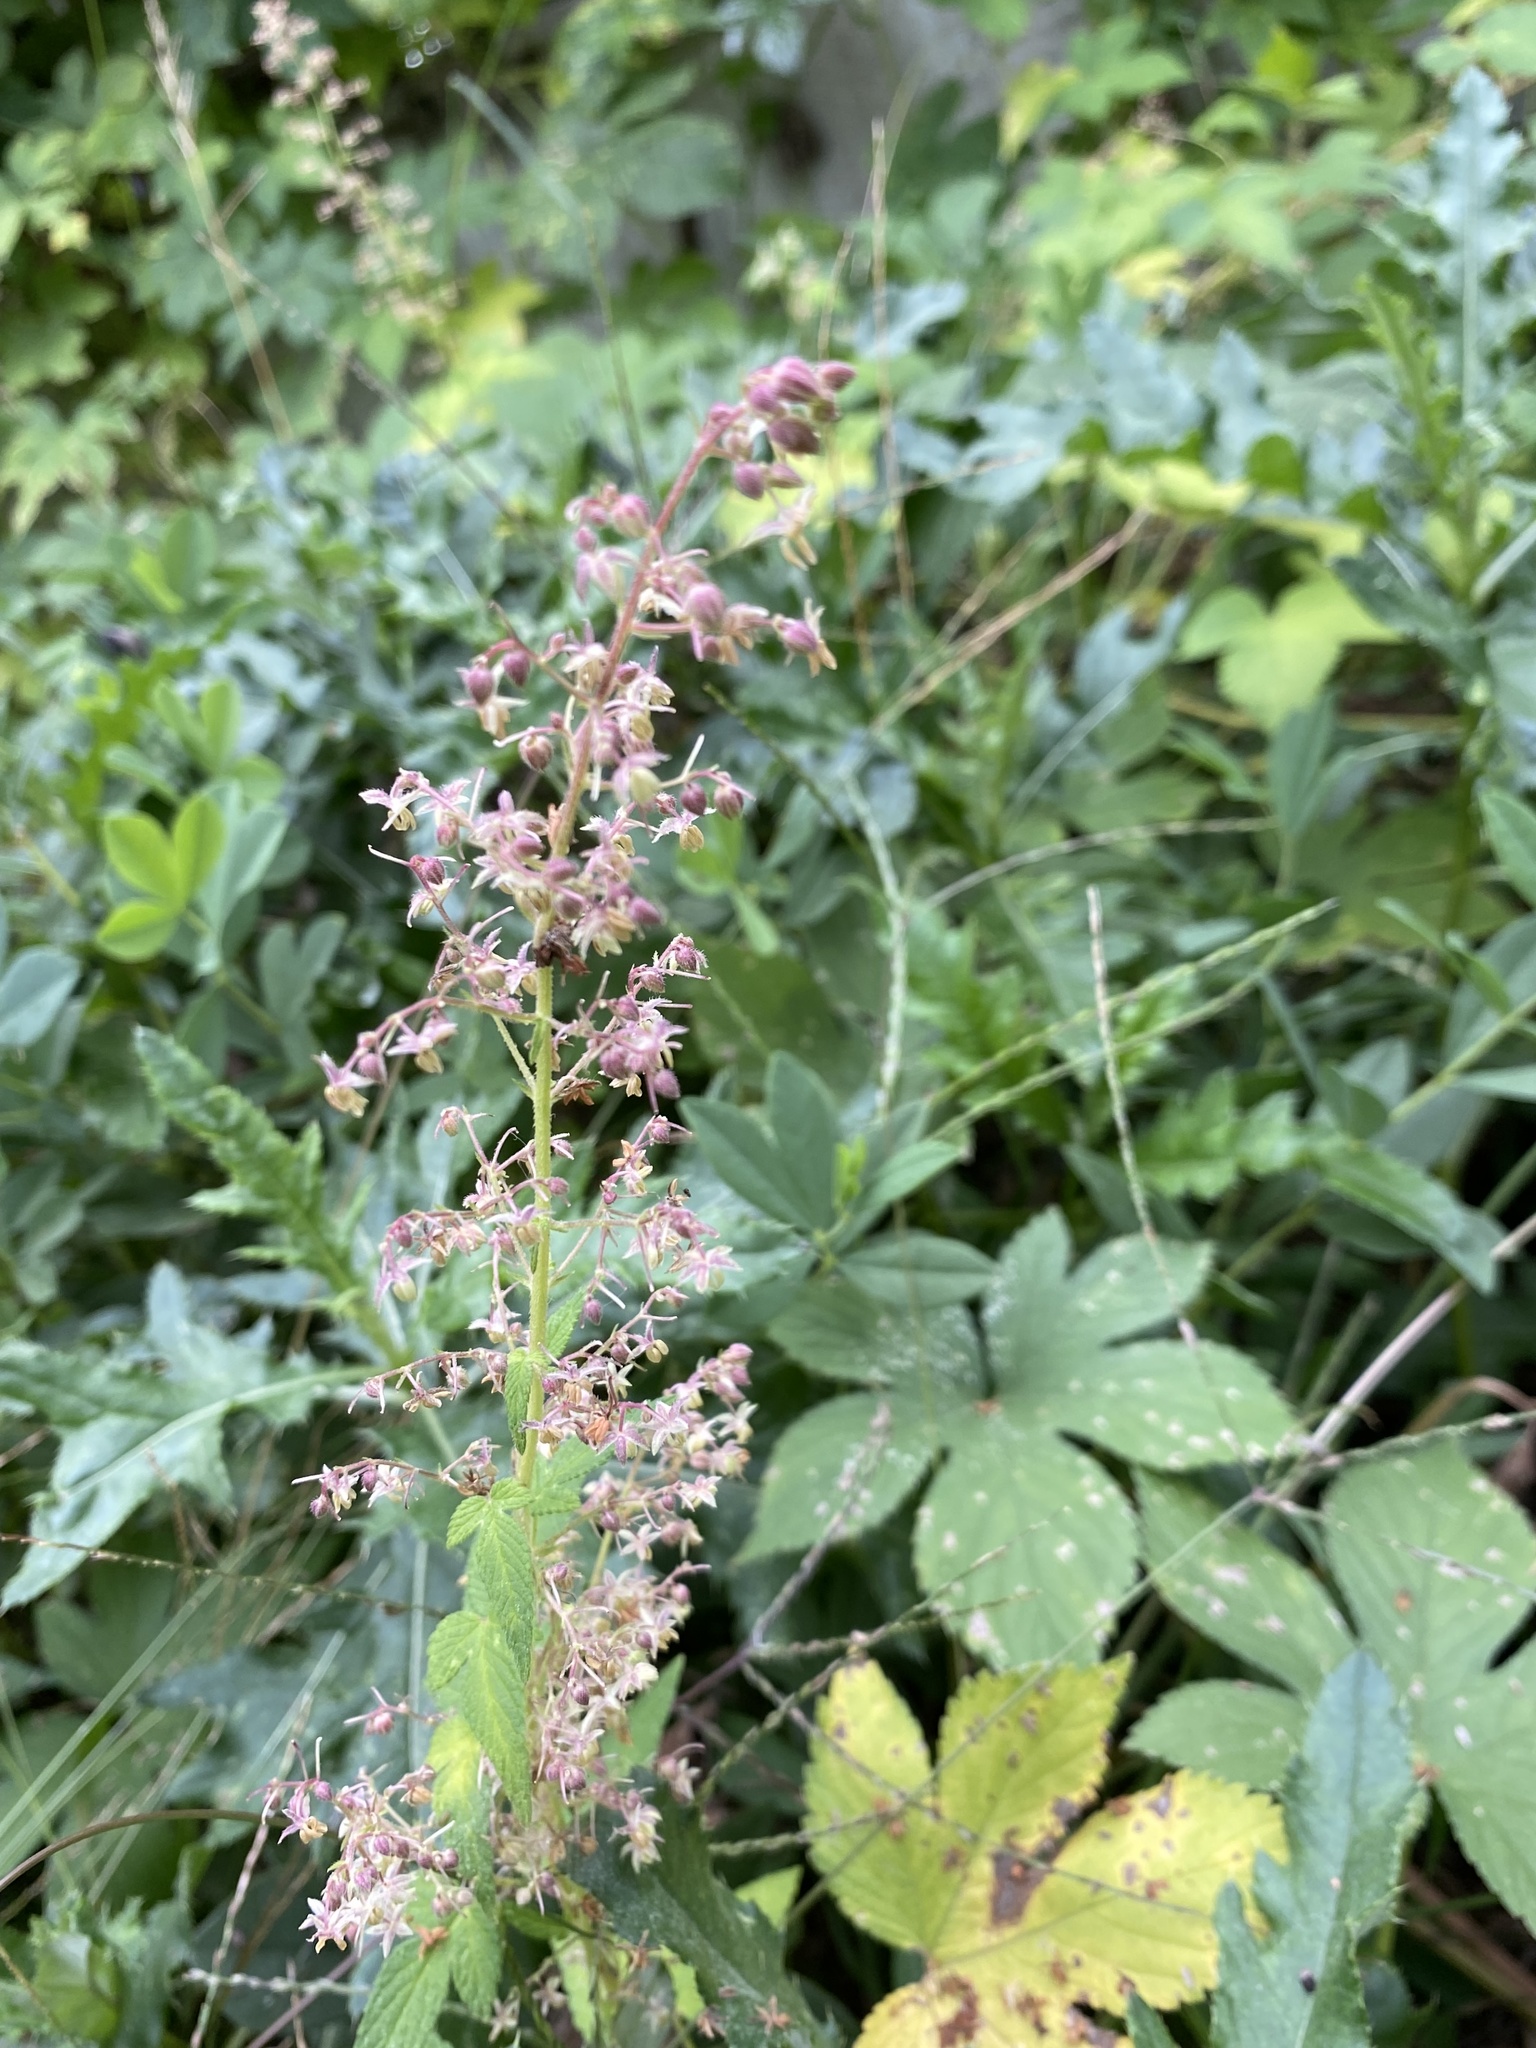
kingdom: Plantae
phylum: Tracheophyta
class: Magnoliopsida
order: Rosales
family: Cannabaceae
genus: Humulus
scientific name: Humulus scandens
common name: Japanese hop
